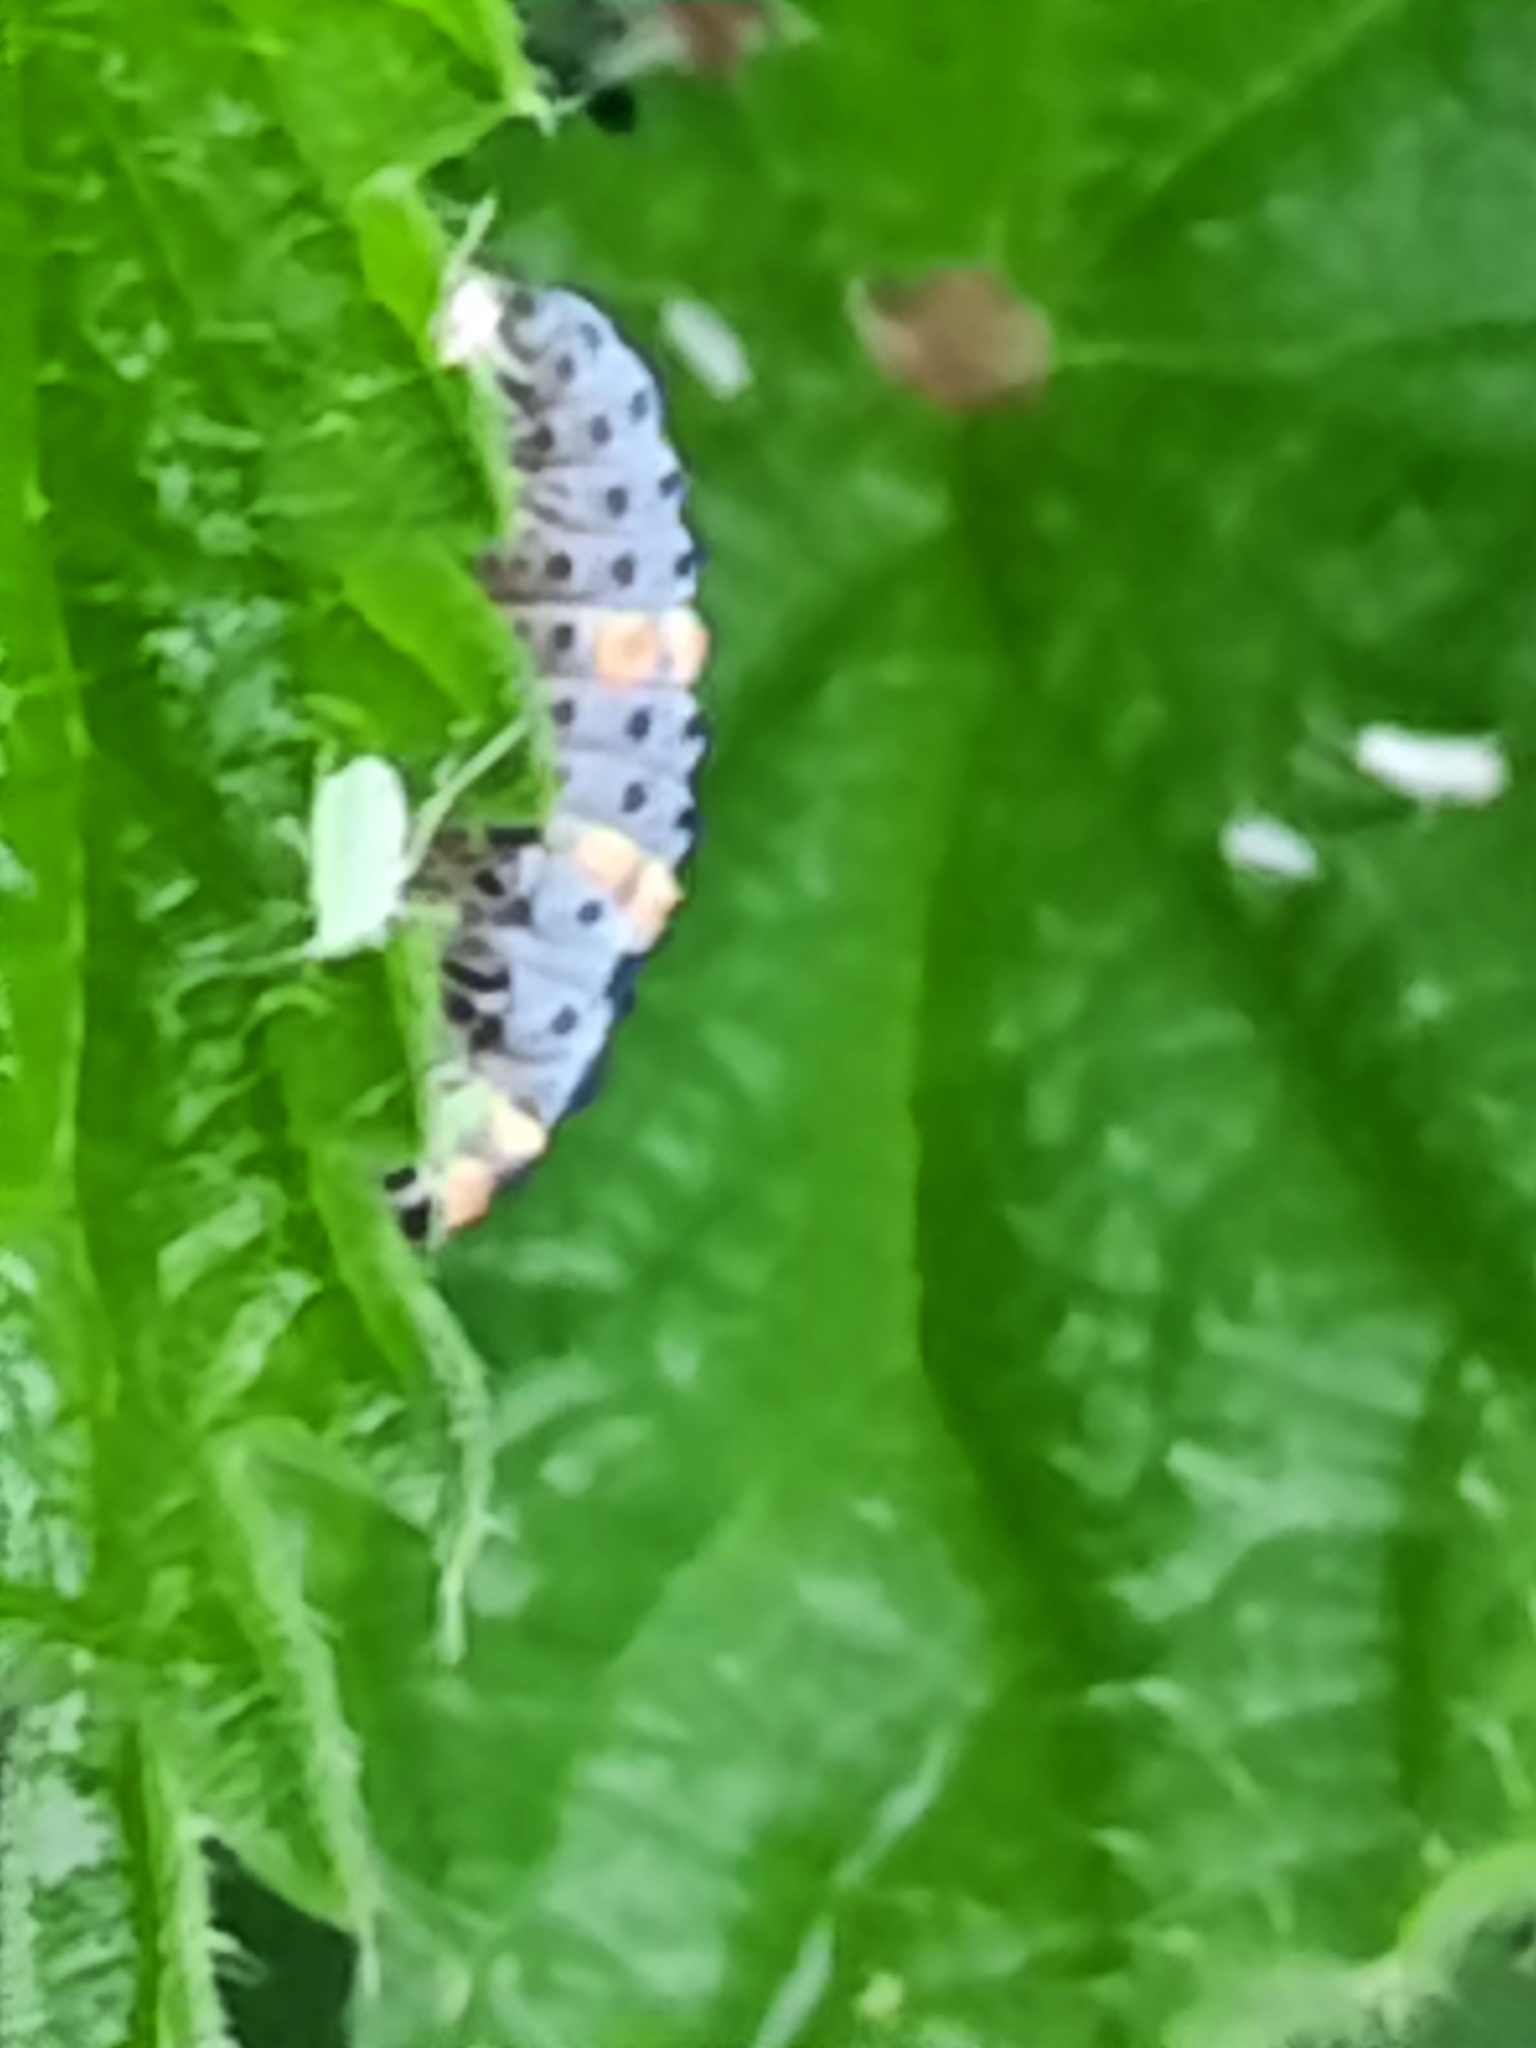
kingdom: Animalia
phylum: Arthropoda
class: Insecta
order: Coleoptera
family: Coccinellidae
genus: Coccinella
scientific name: Coccinella septempunctata
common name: Sevenspotted lady beetle
